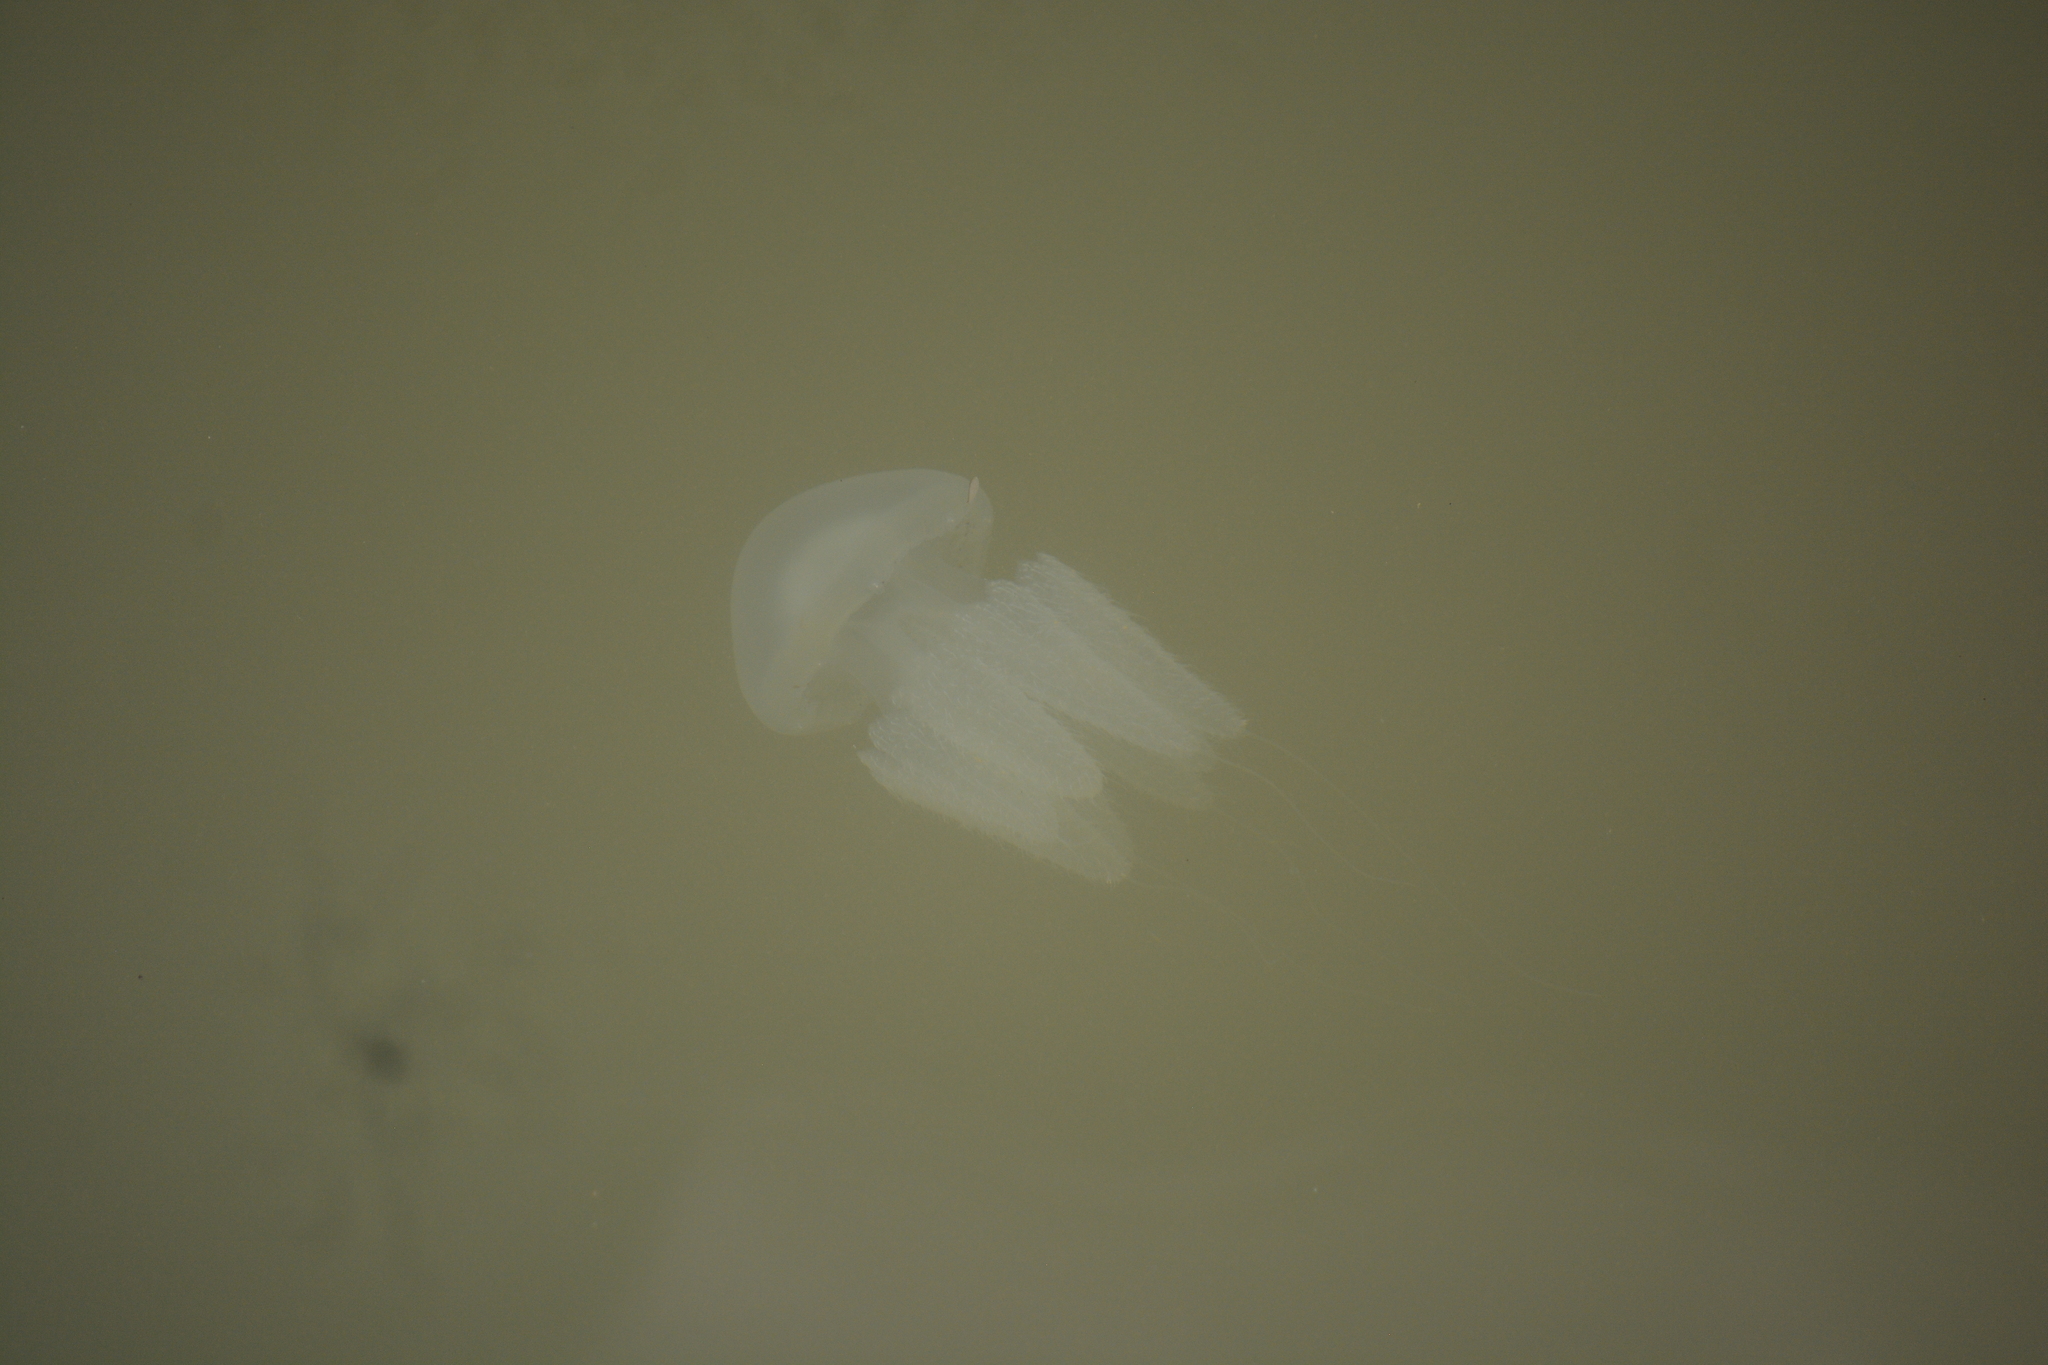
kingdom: Animalia
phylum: Cnidaria
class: Scyphozoa
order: Rhizostomeae
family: Catostylidae
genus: Acromitus
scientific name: Acromitus flagellatus
